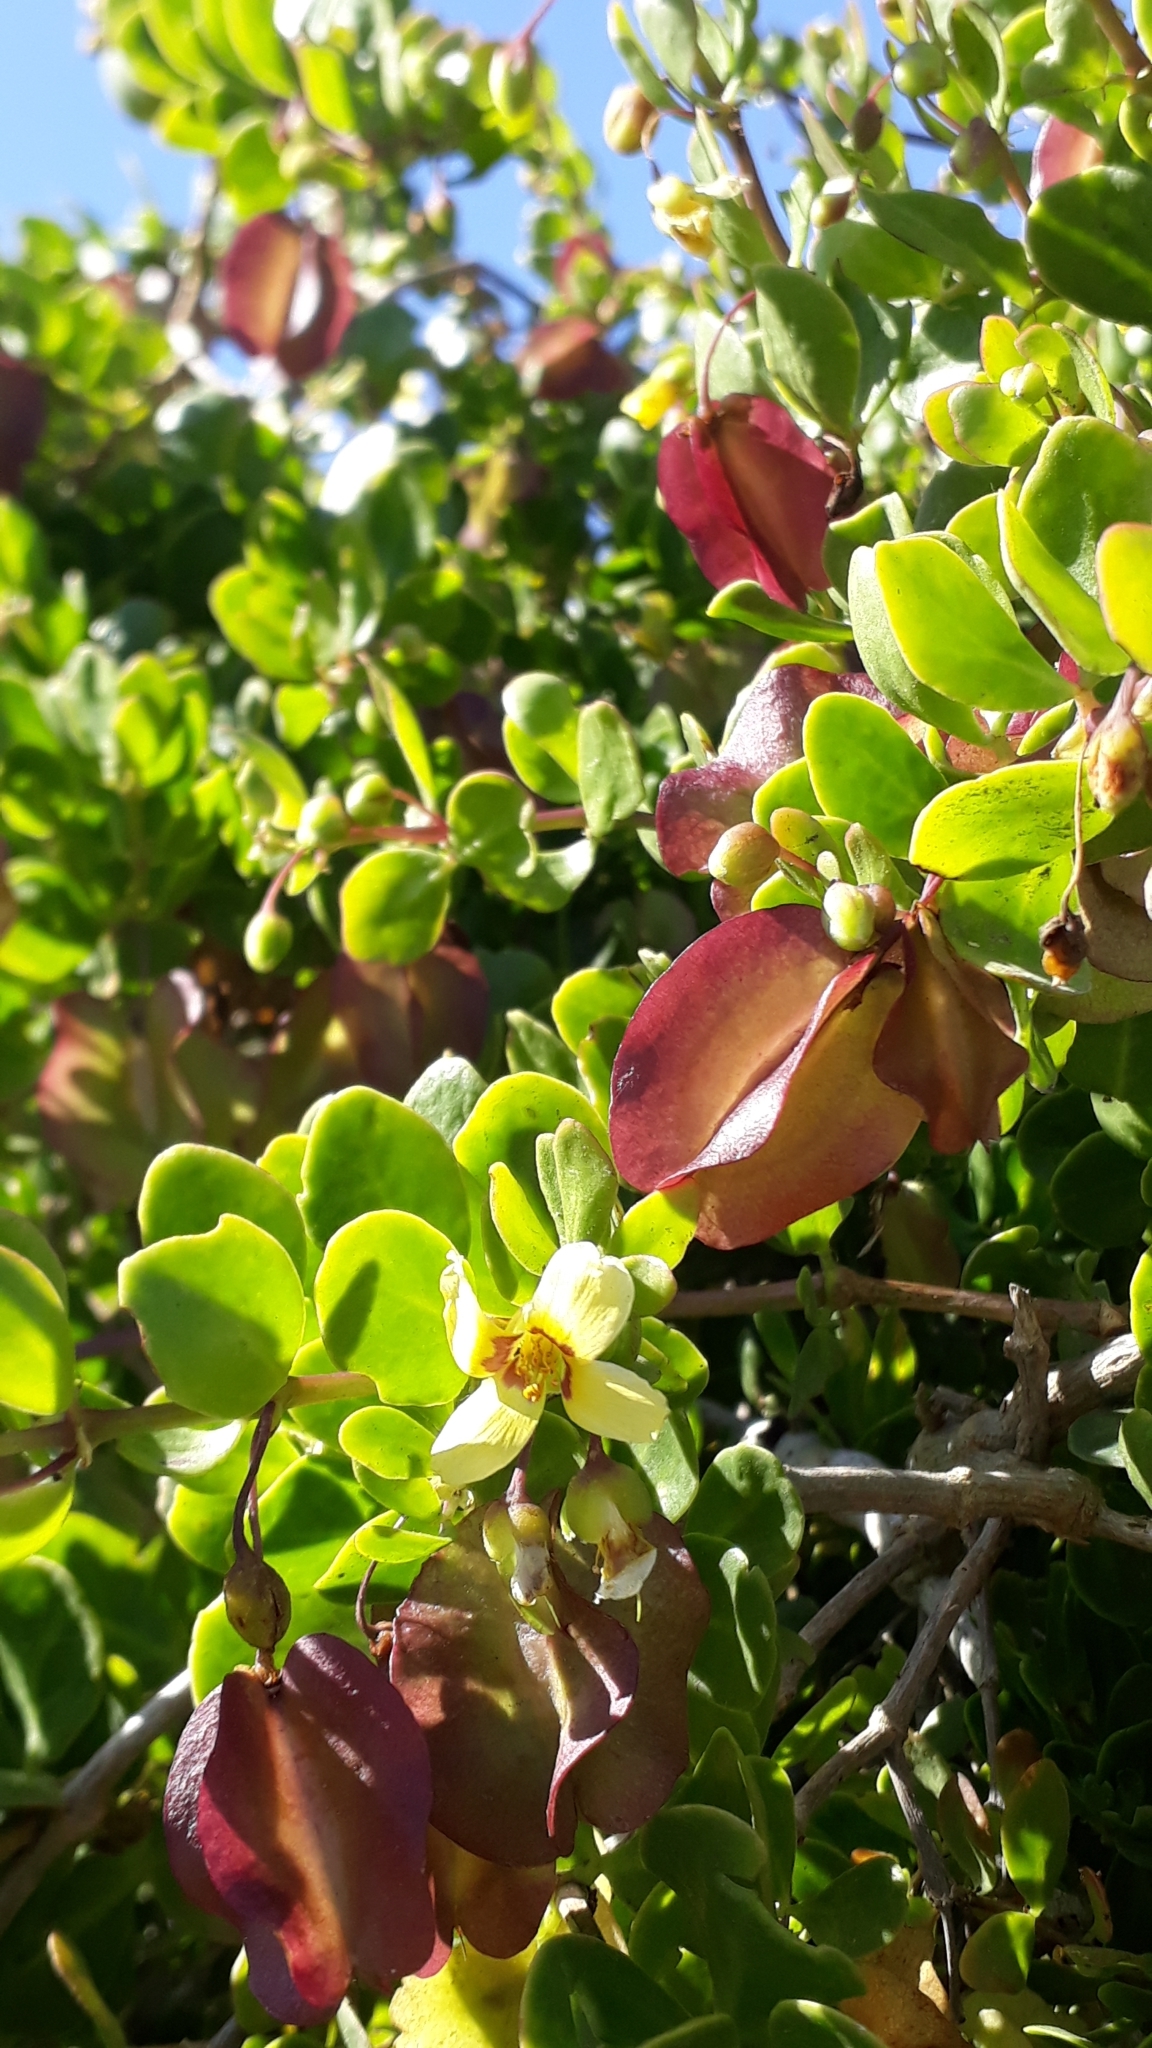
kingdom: Plantae
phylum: Tracheophyta
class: Magnoliopsida
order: Zygophyllales
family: Zygophyllaceae
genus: Roepera
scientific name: Roepera morgsana
